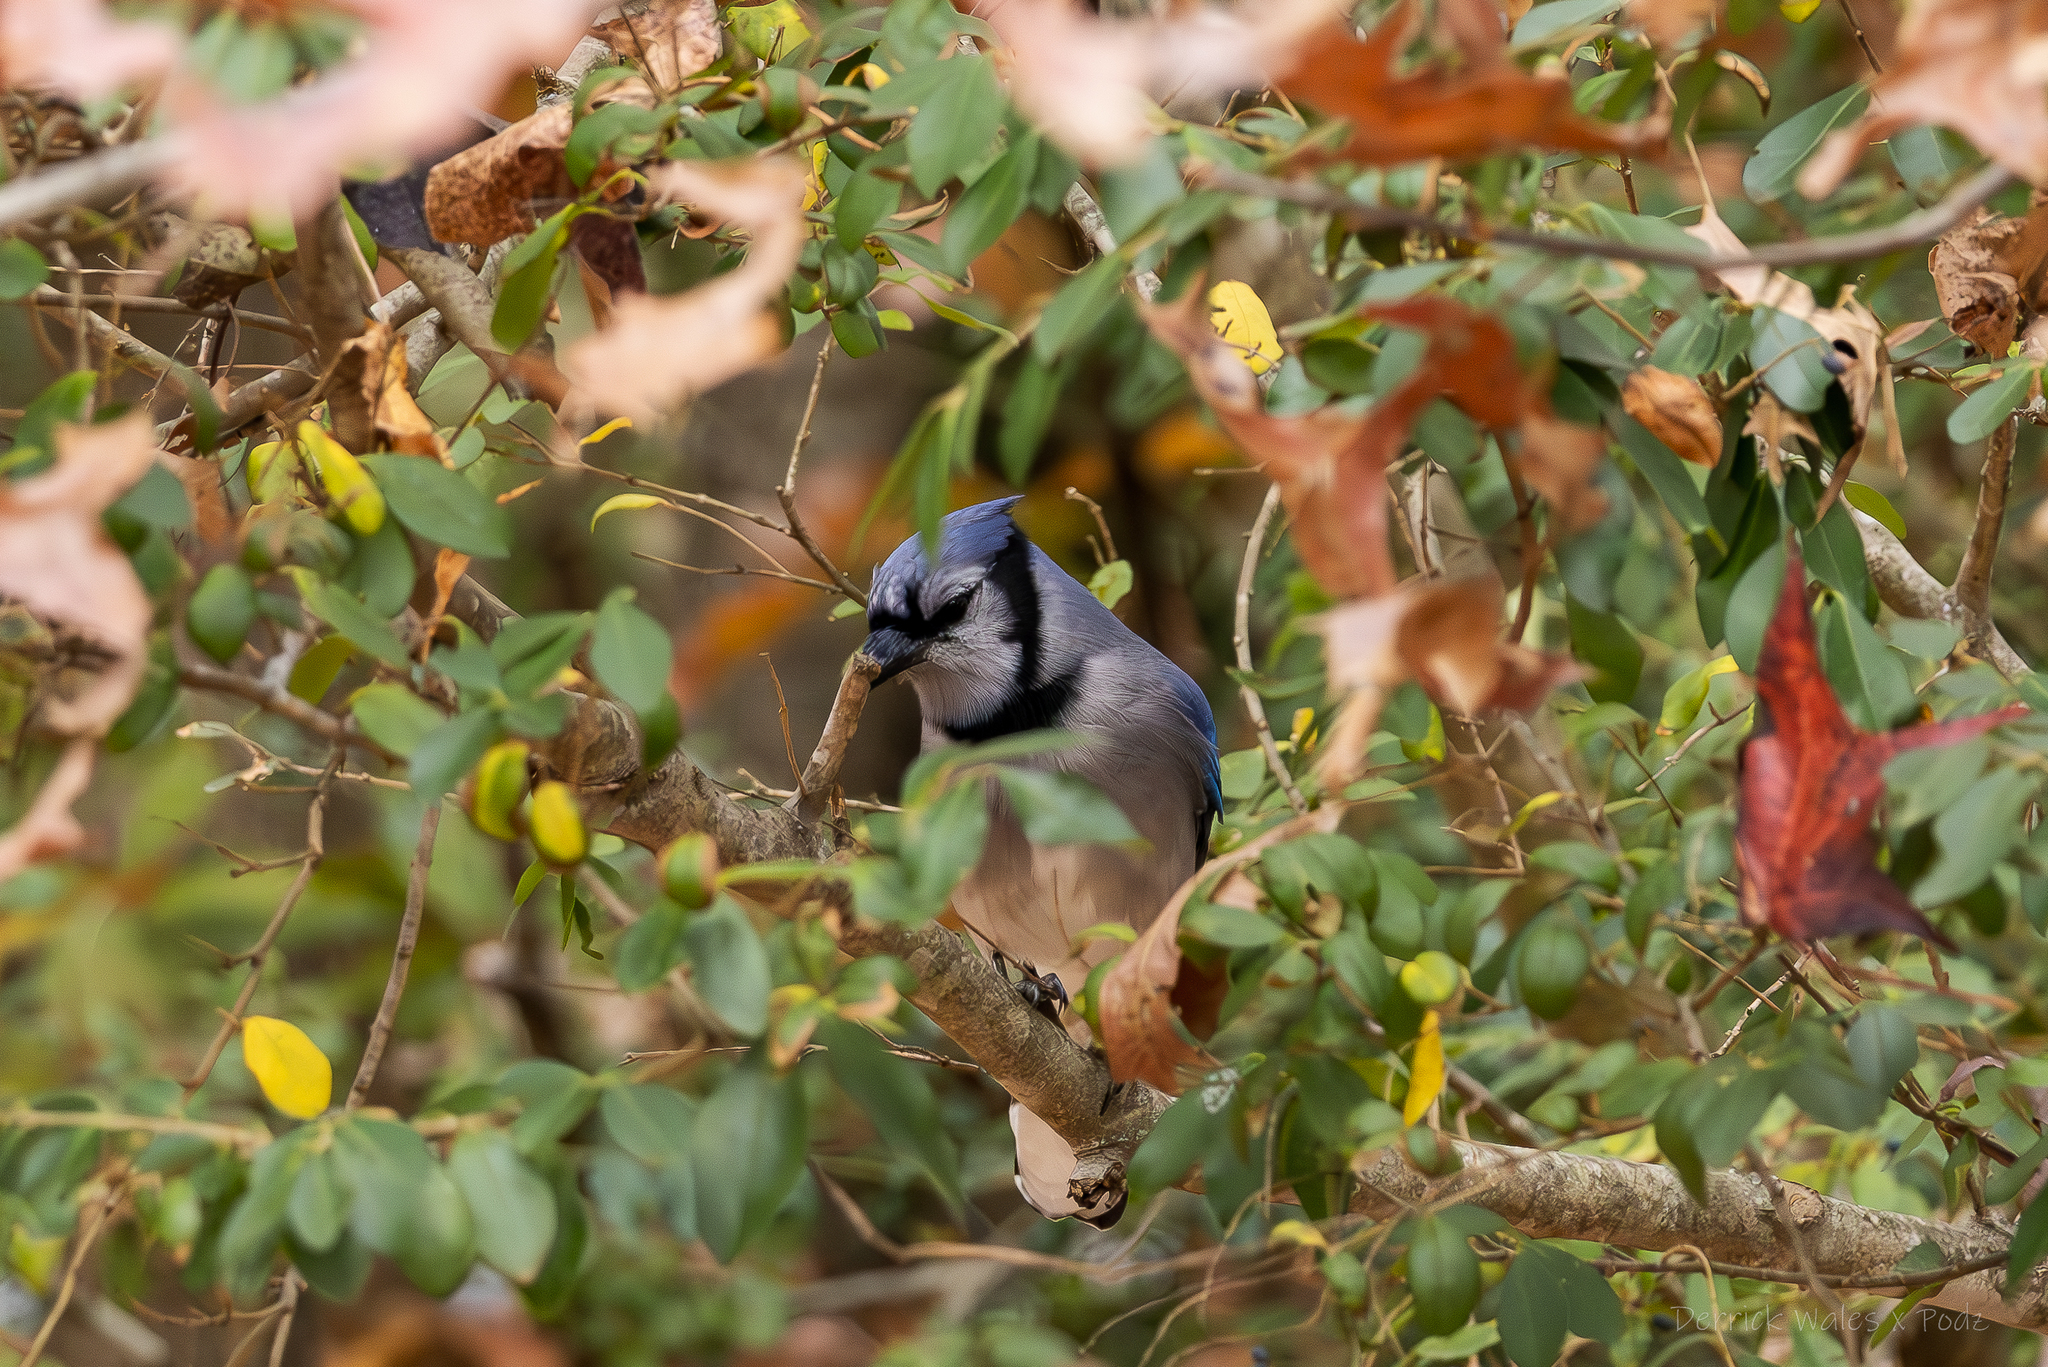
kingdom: Animalia
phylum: Chordata
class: Aves
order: Passeriformes
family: Corvidae
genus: Cyanocitta
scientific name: Cyanocitta cristata
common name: Blue jay
